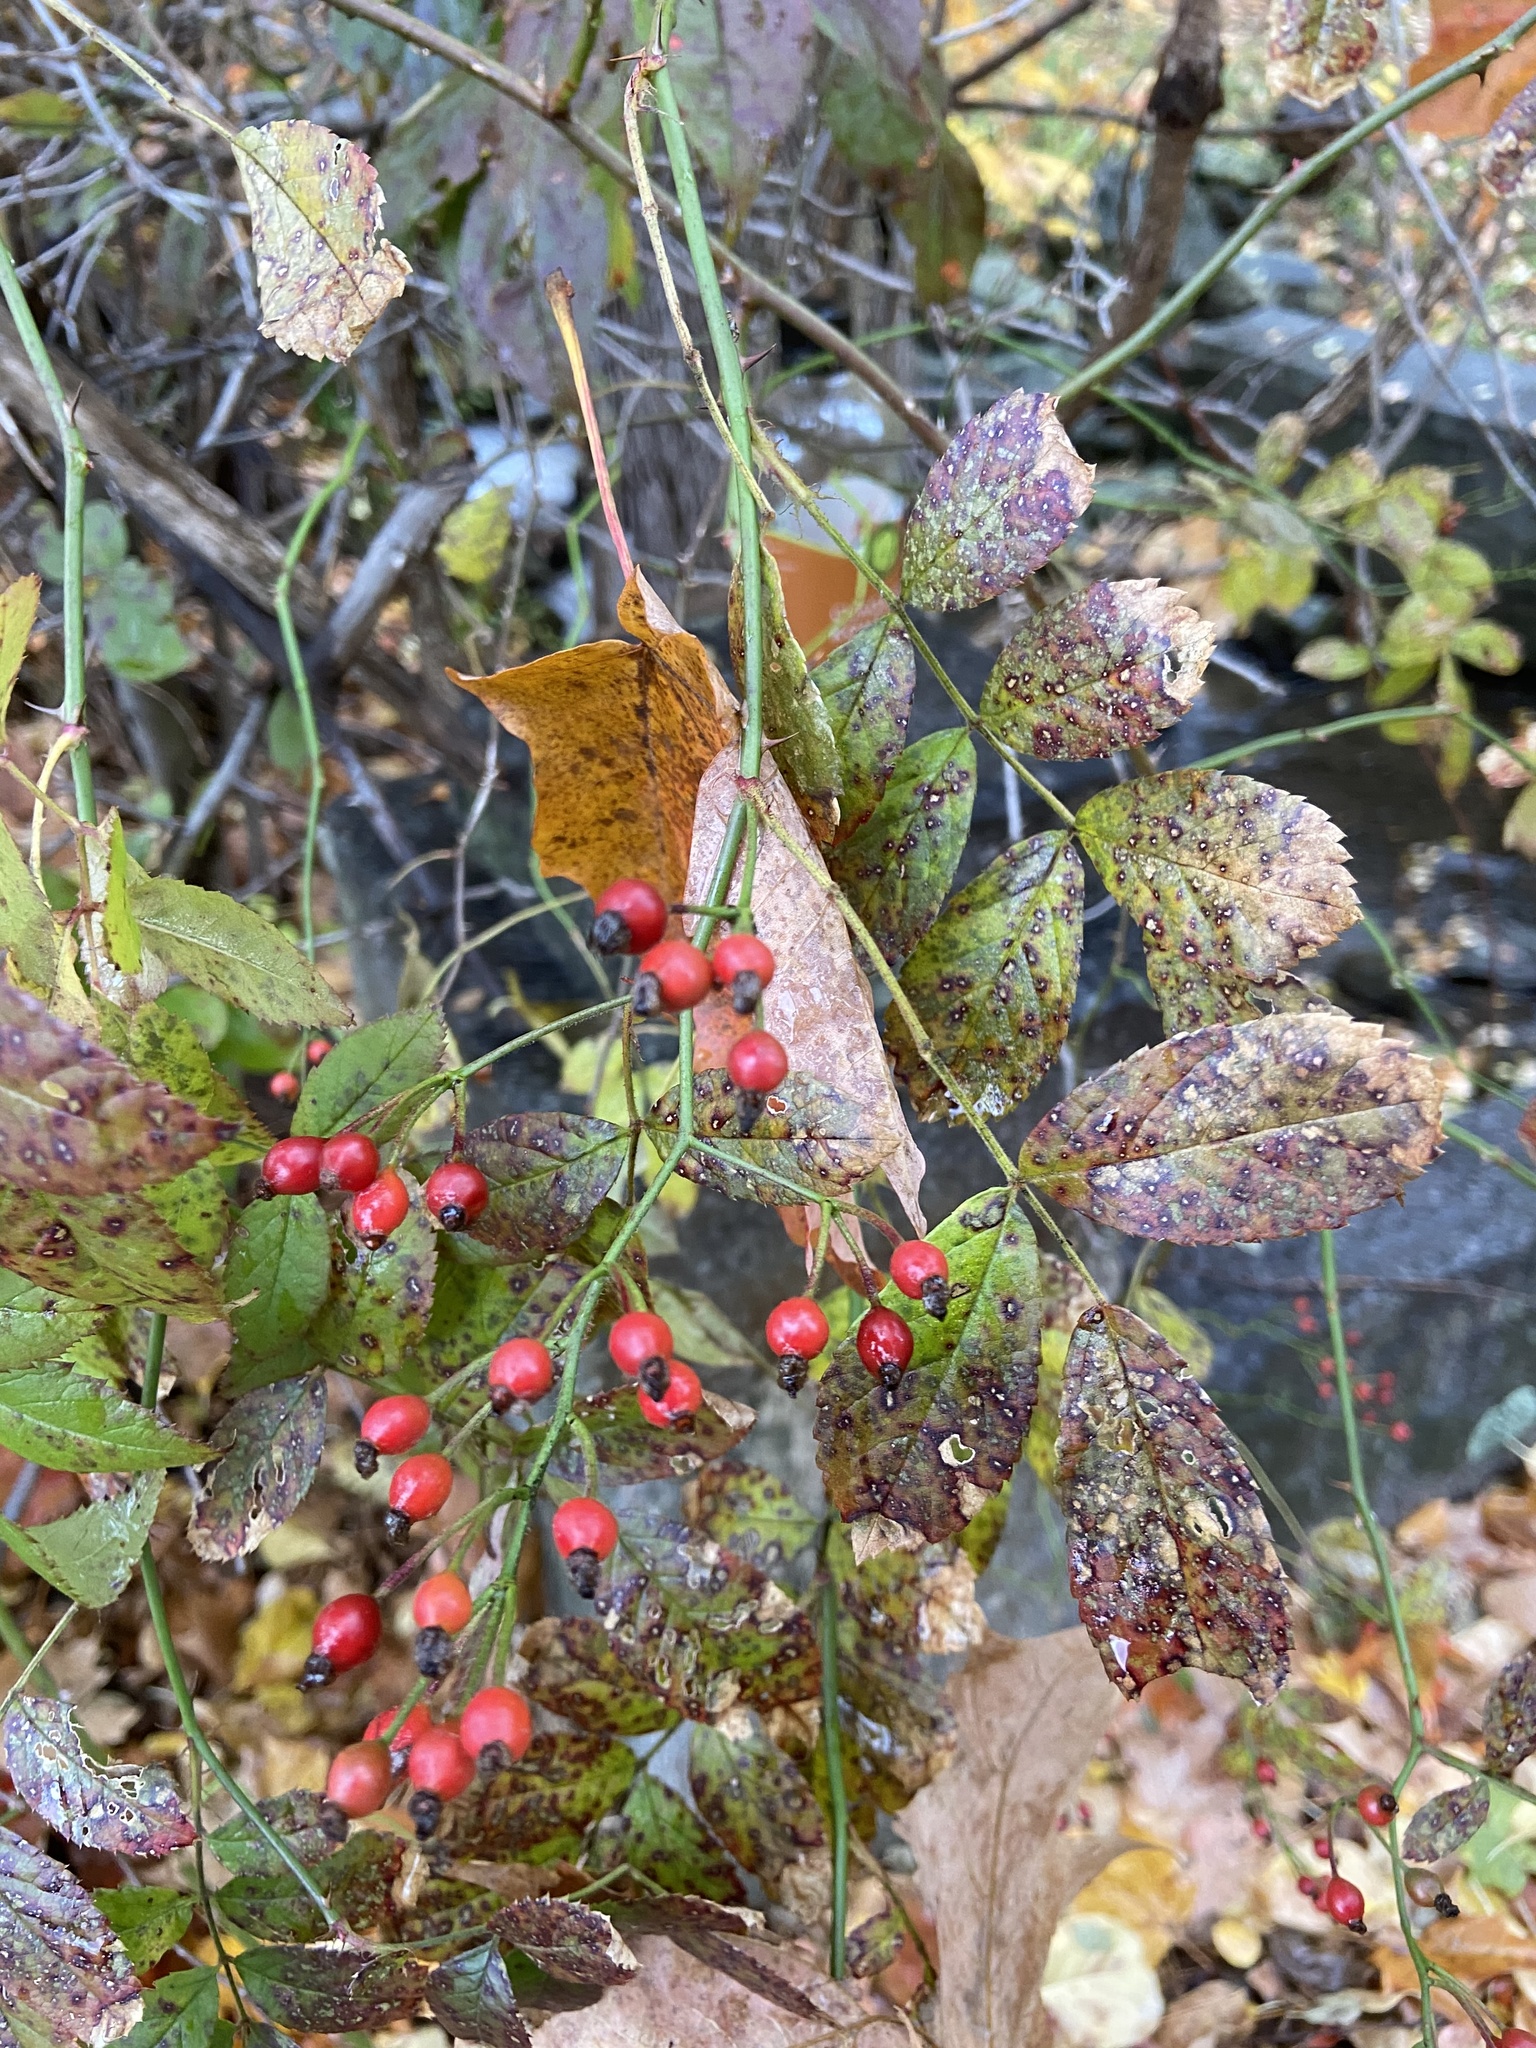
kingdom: Plantae
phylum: Tracheophyta
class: Magnoliopsida
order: Rosales
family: Rosaceae
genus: Rosa
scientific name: Rosa multiflora
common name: Multiflora rose
